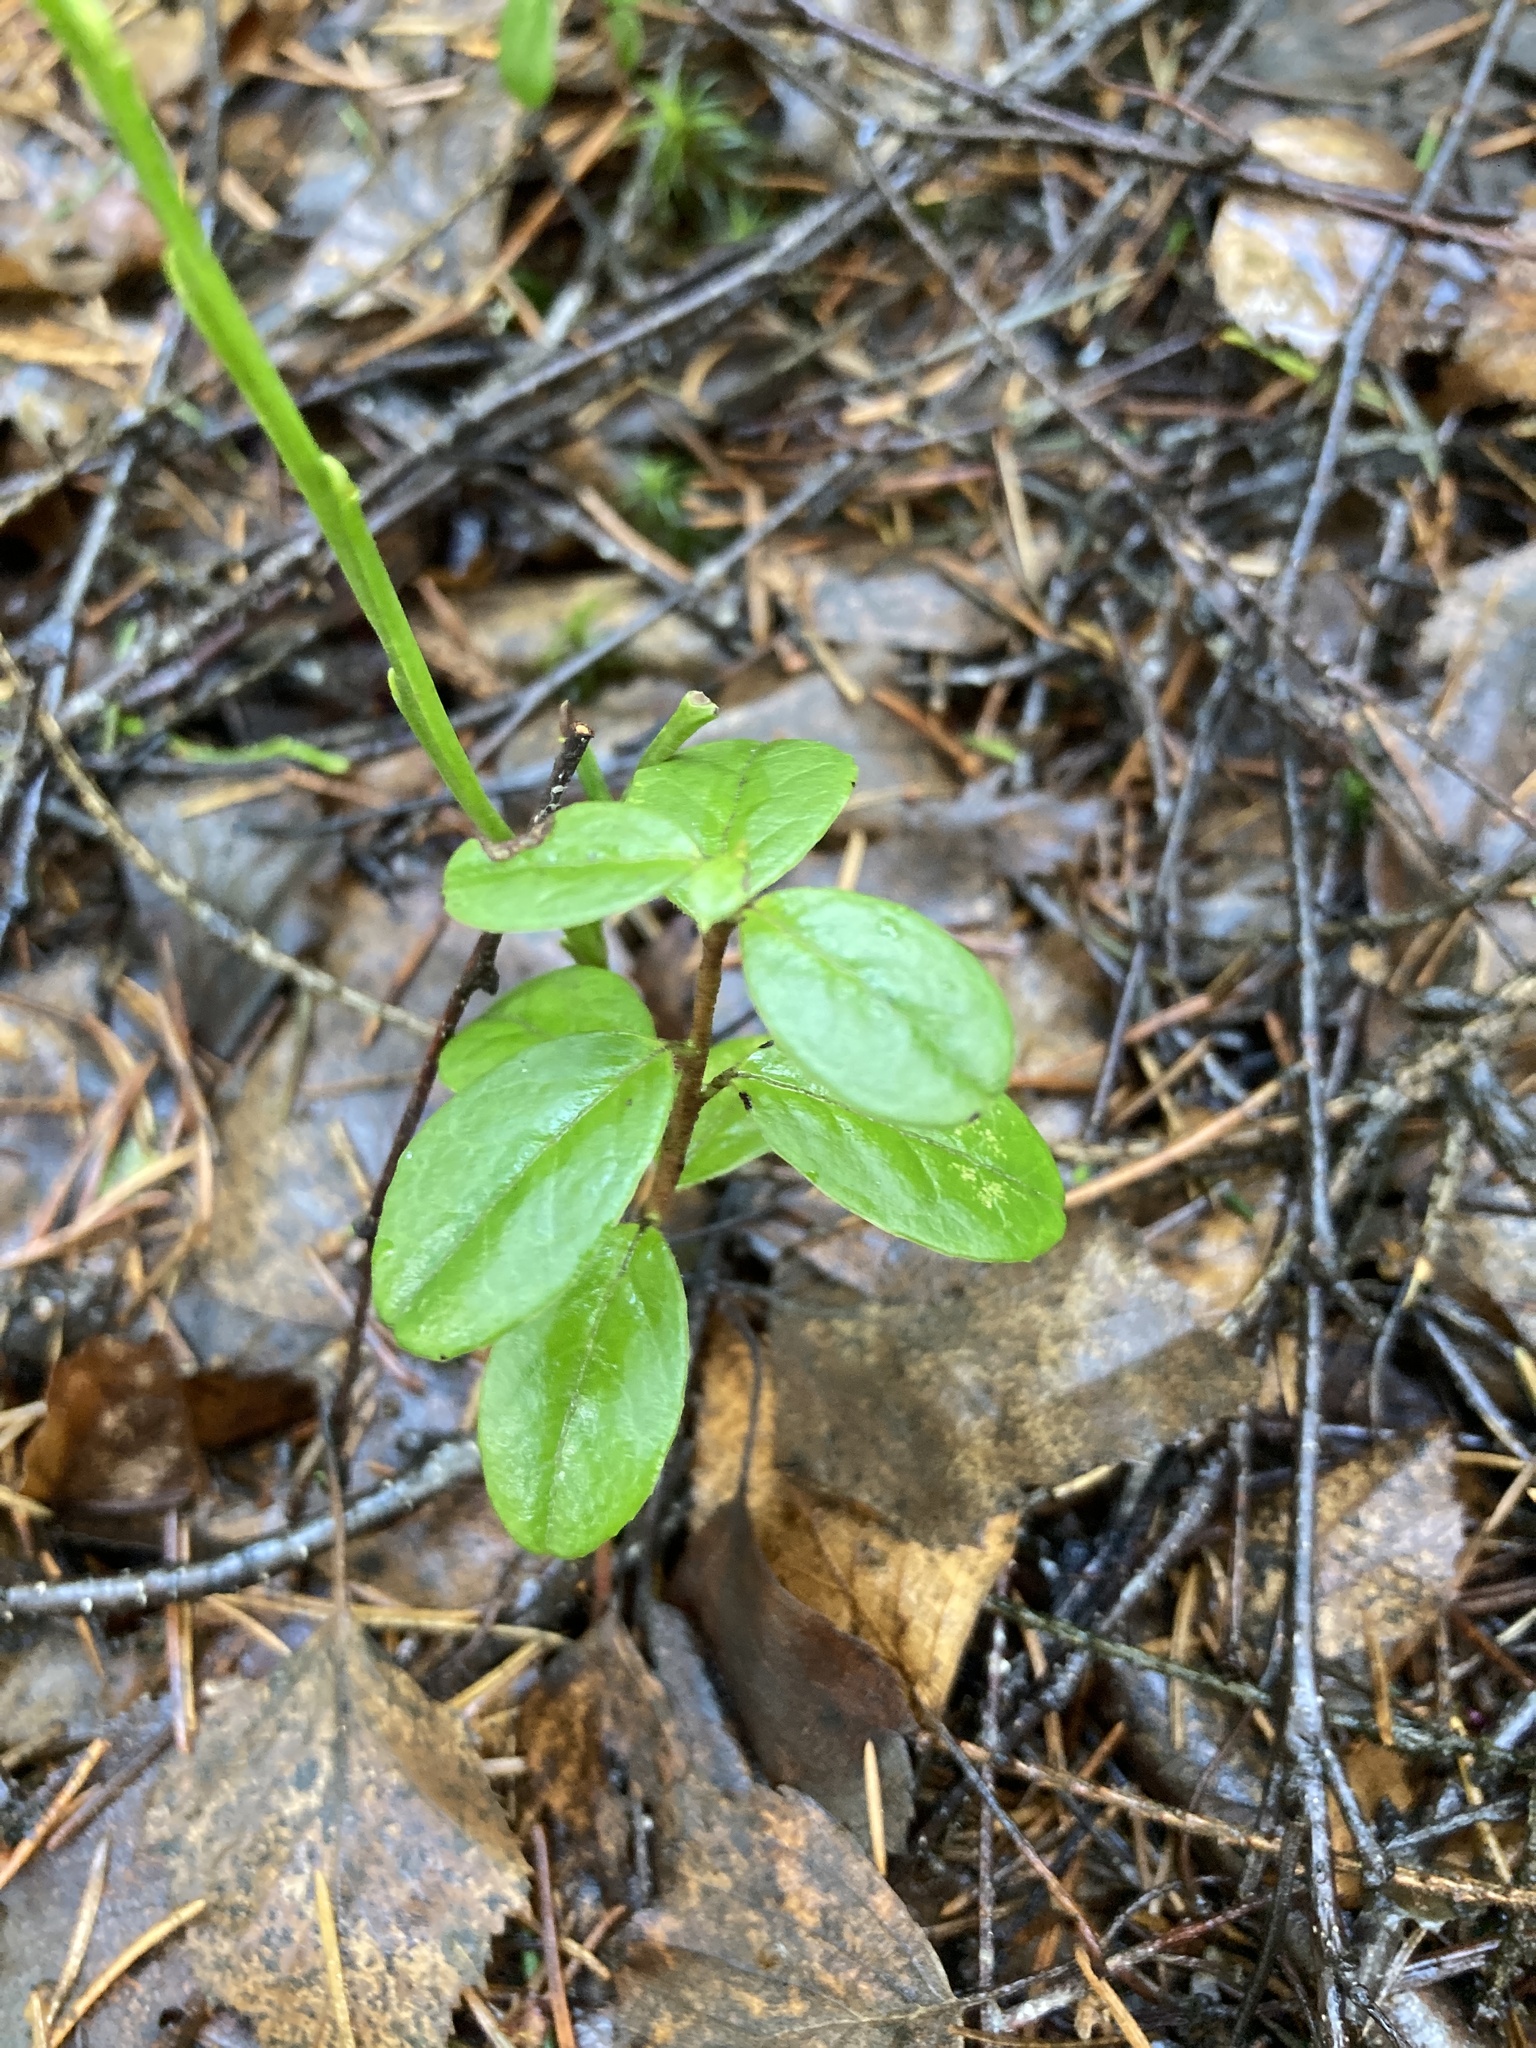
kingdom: Plantae
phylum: Tracheophyta
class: Magnoliopsida
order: Ericales
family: Ericaceae
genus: Vaccinium
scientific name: Vaccinium vitis-idaea
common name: Cowberry
